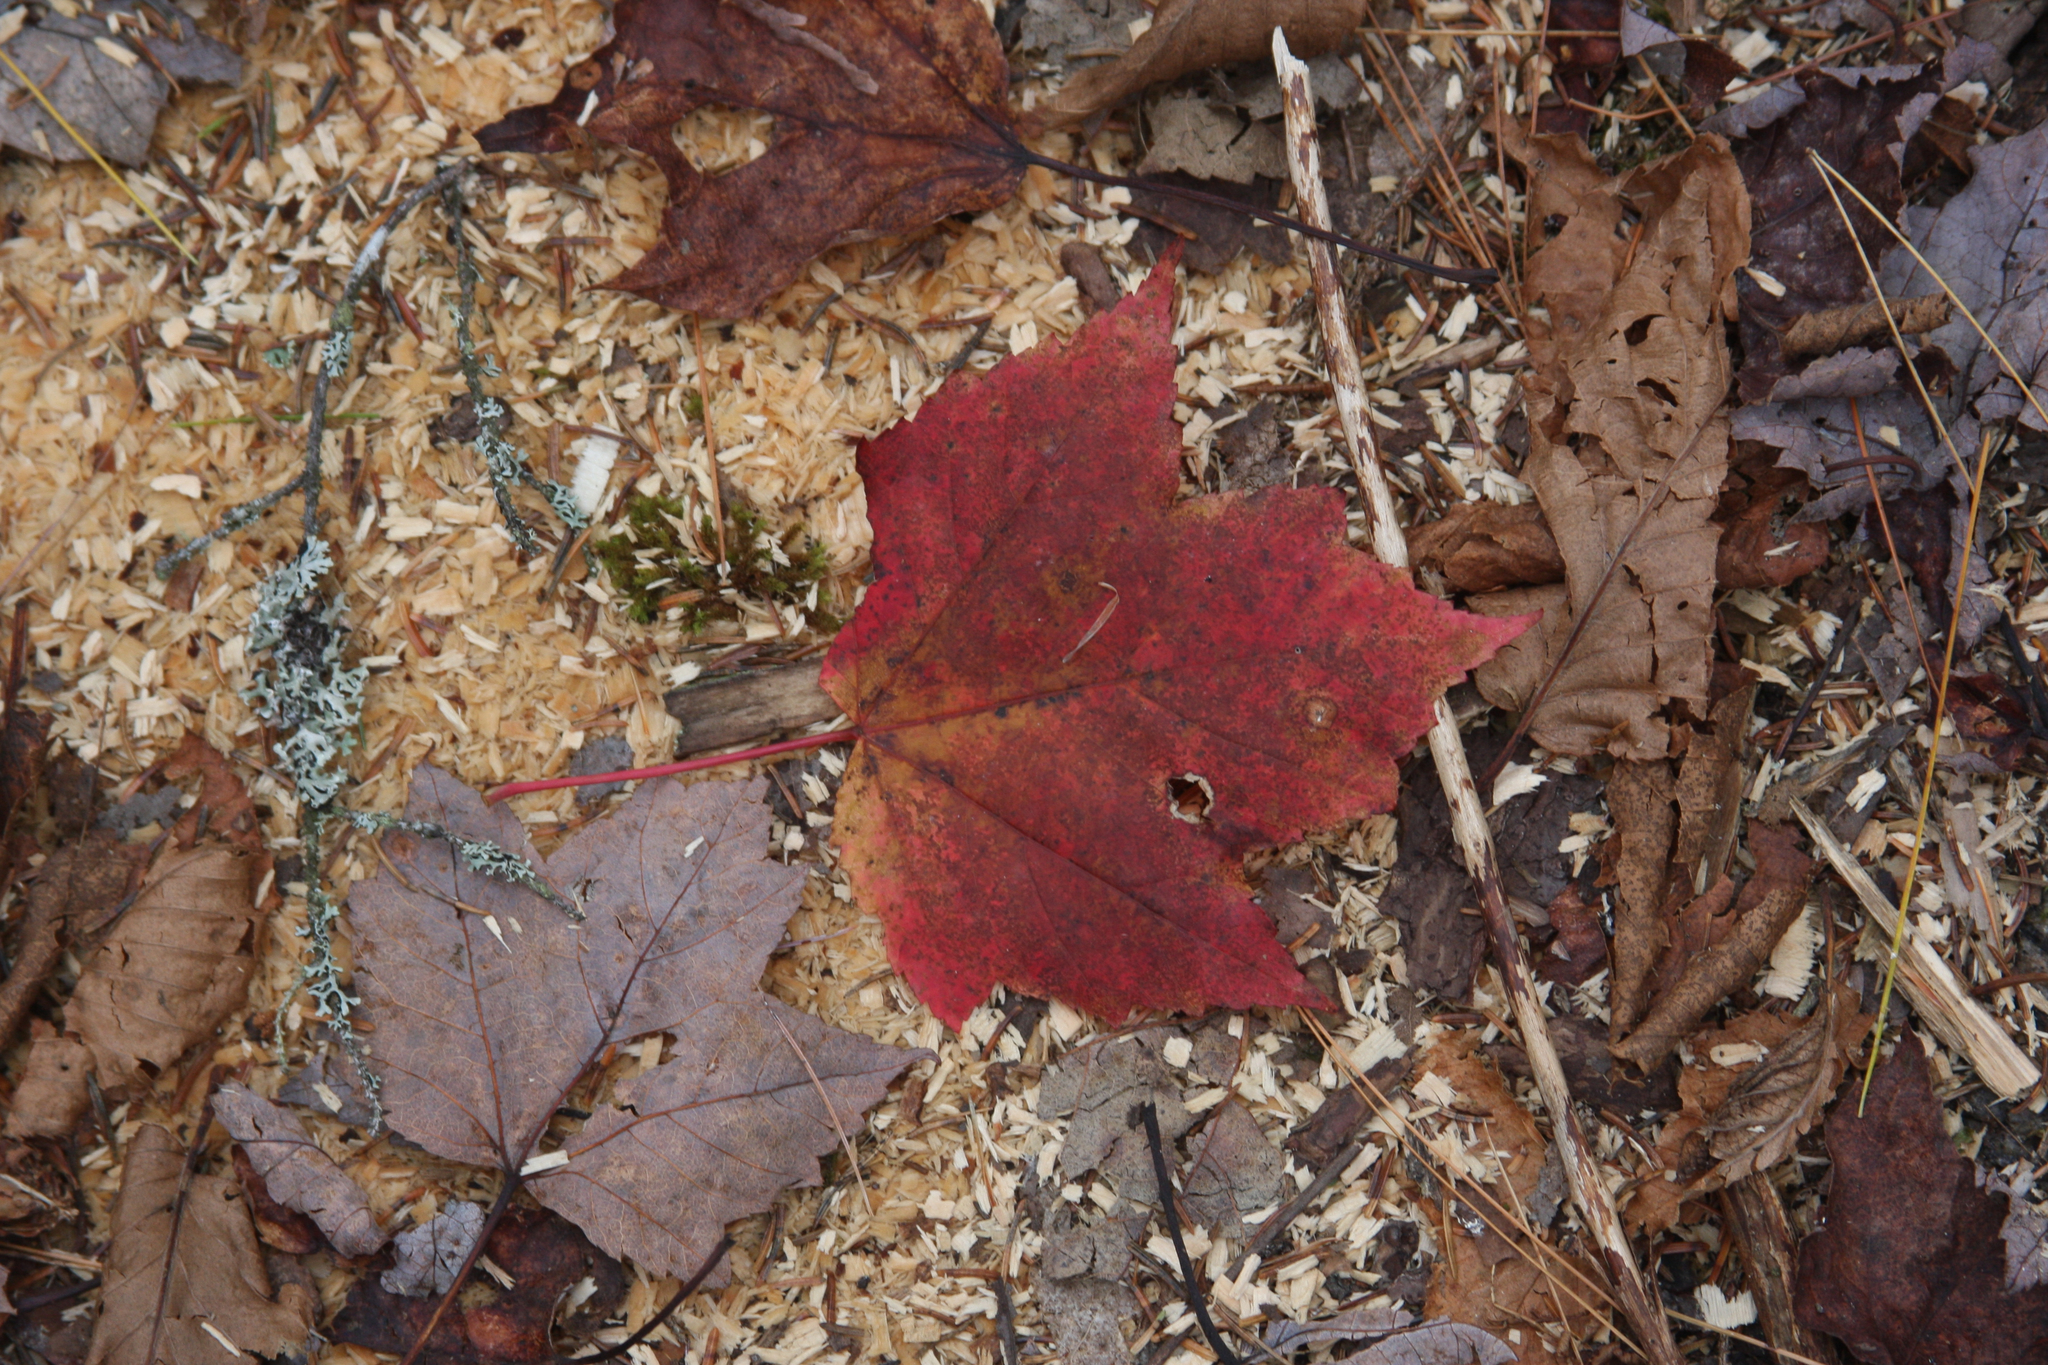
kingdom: Plantae
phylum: Tracheophyta
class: Magnoliopsida
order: Sapindales
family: Sapindaceae
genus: Acer
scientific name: Acer rubrum
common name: Red maple
